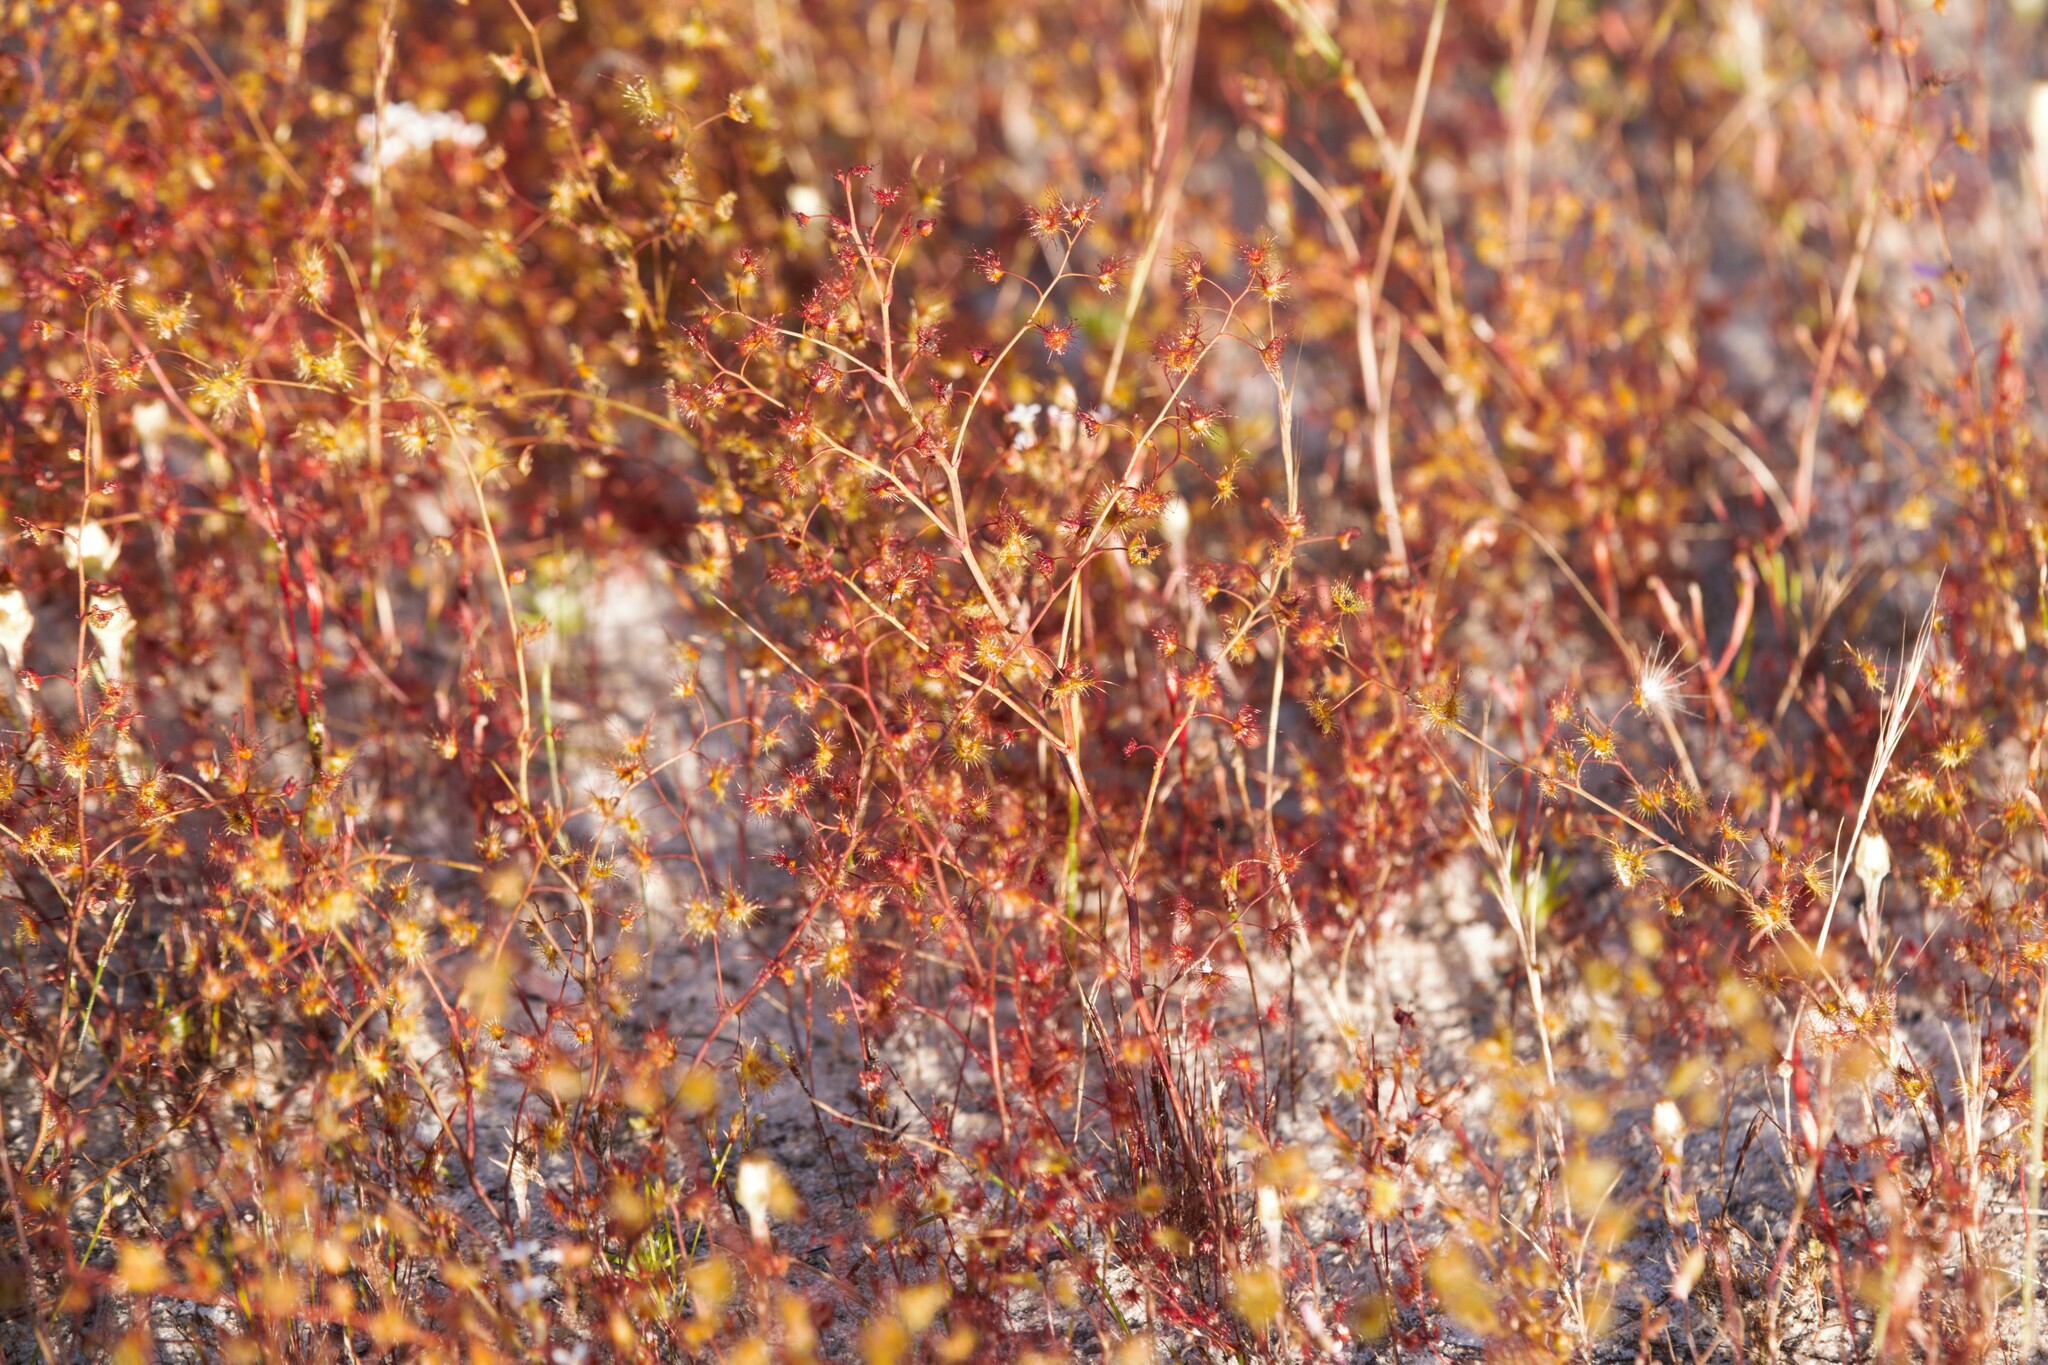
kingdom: Plantae
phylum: Tracheophyta
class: Magnoliopsida
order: Caryophyllales
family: Droseraceae
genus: Drosera
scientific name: Drosera gigantea
